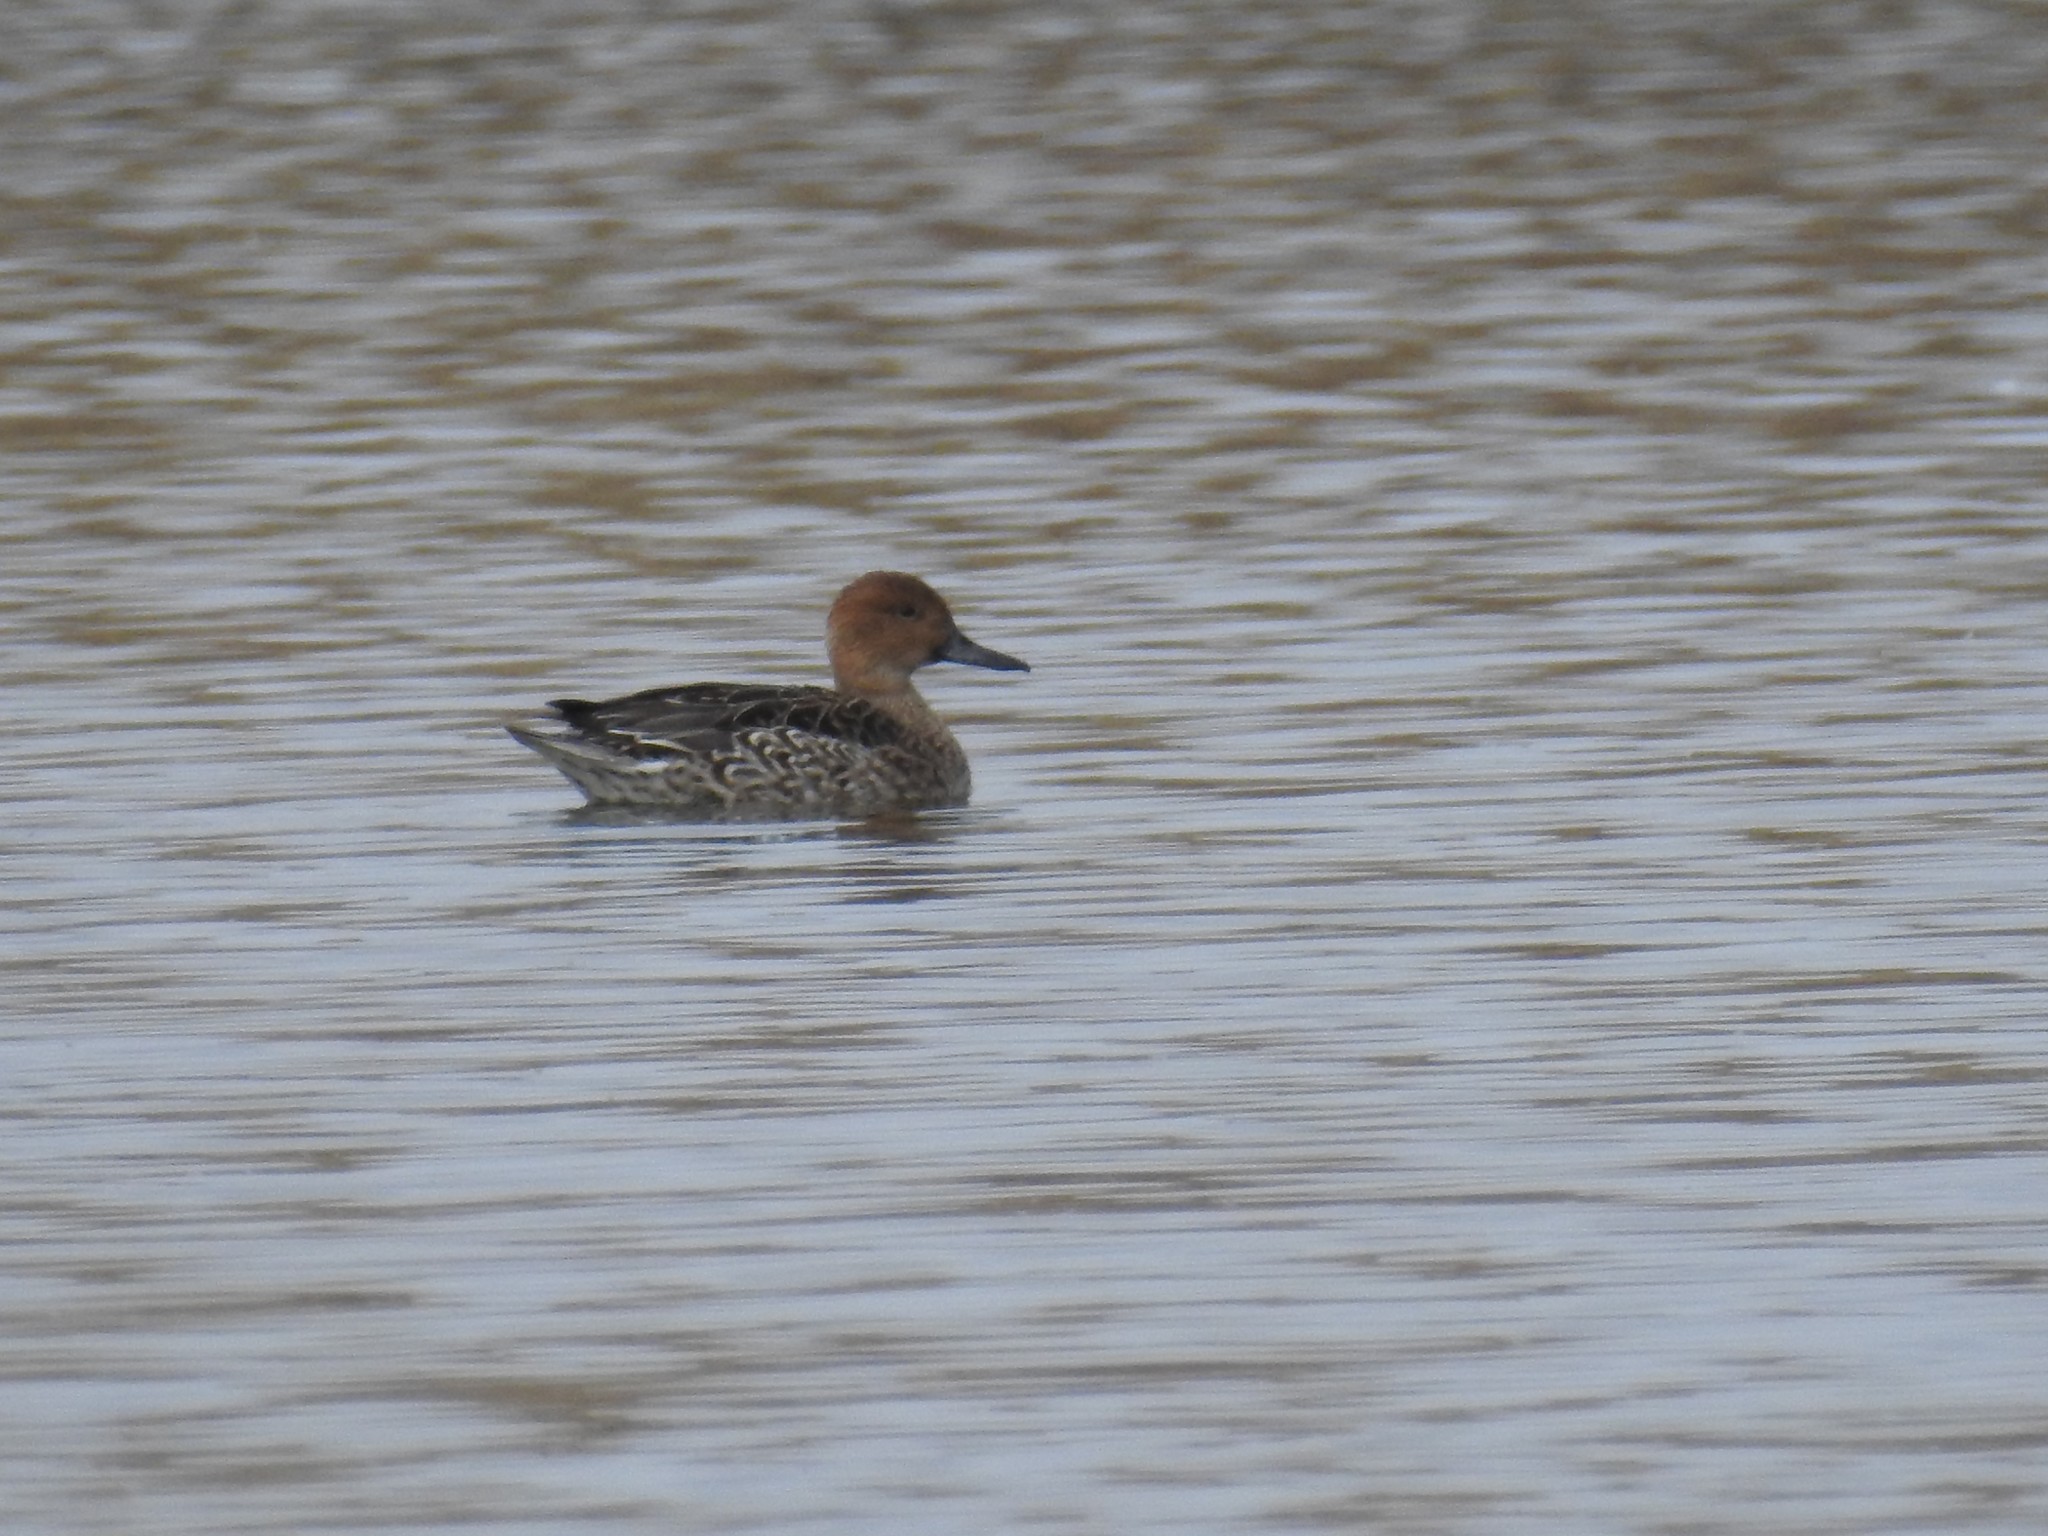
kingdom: Animalia
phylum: Chordata
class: Aves
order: Anseriformes
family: Anatidae
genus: Anas
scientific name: Anas acuta
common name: Northern pintail
